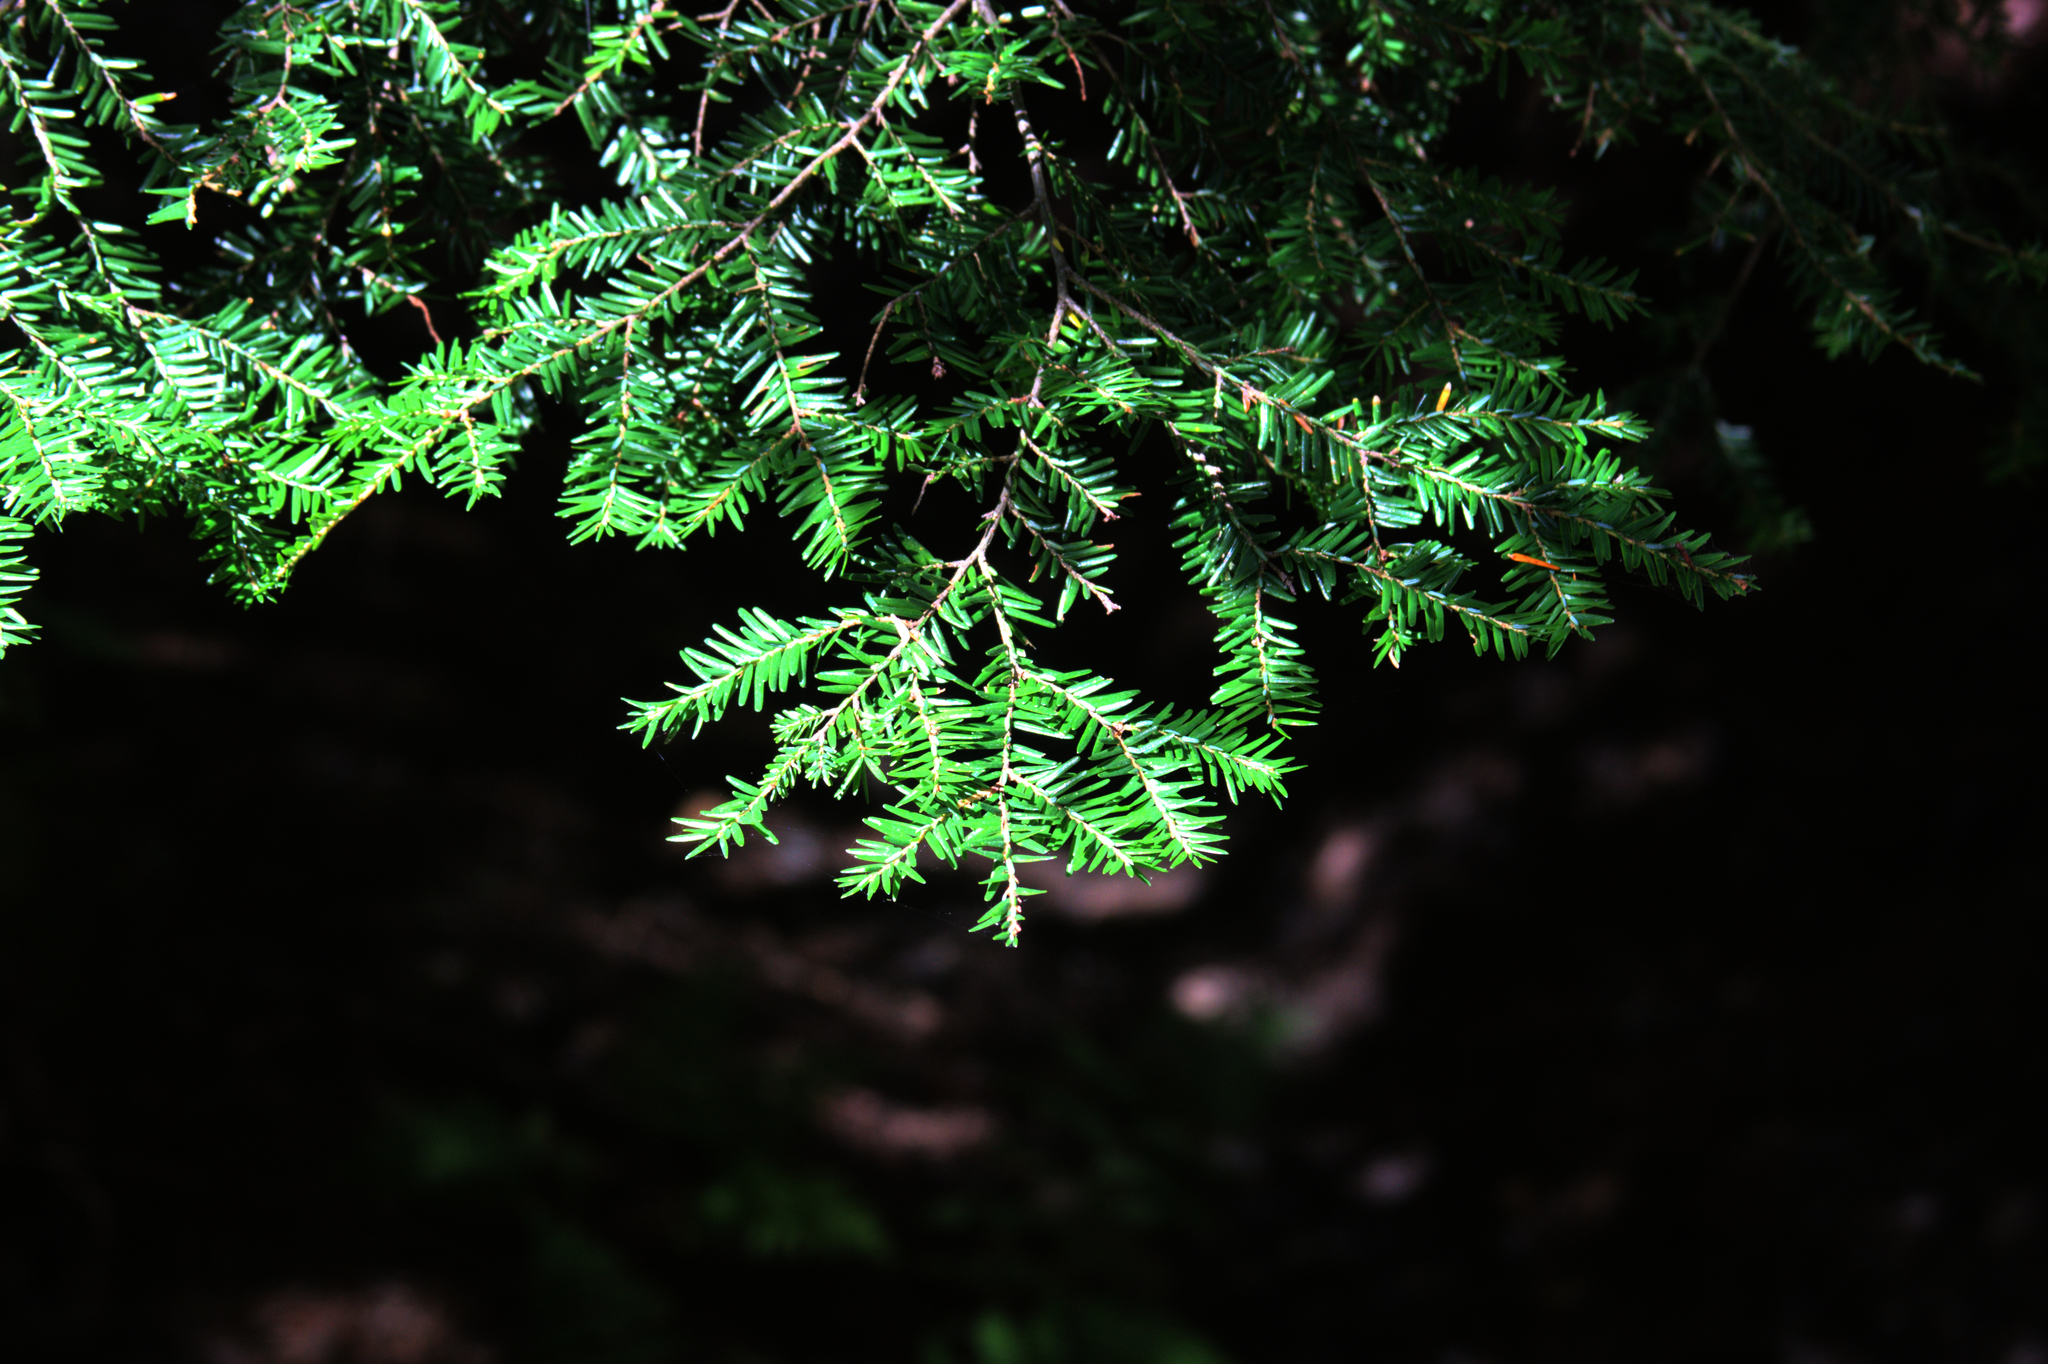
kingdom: Plantae
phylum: Tracheophyta
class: Pinopsida
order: Pinales
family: Pinaceae
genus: Tsuga
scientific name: Tsuga canadensis
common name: Eastern hemlock
